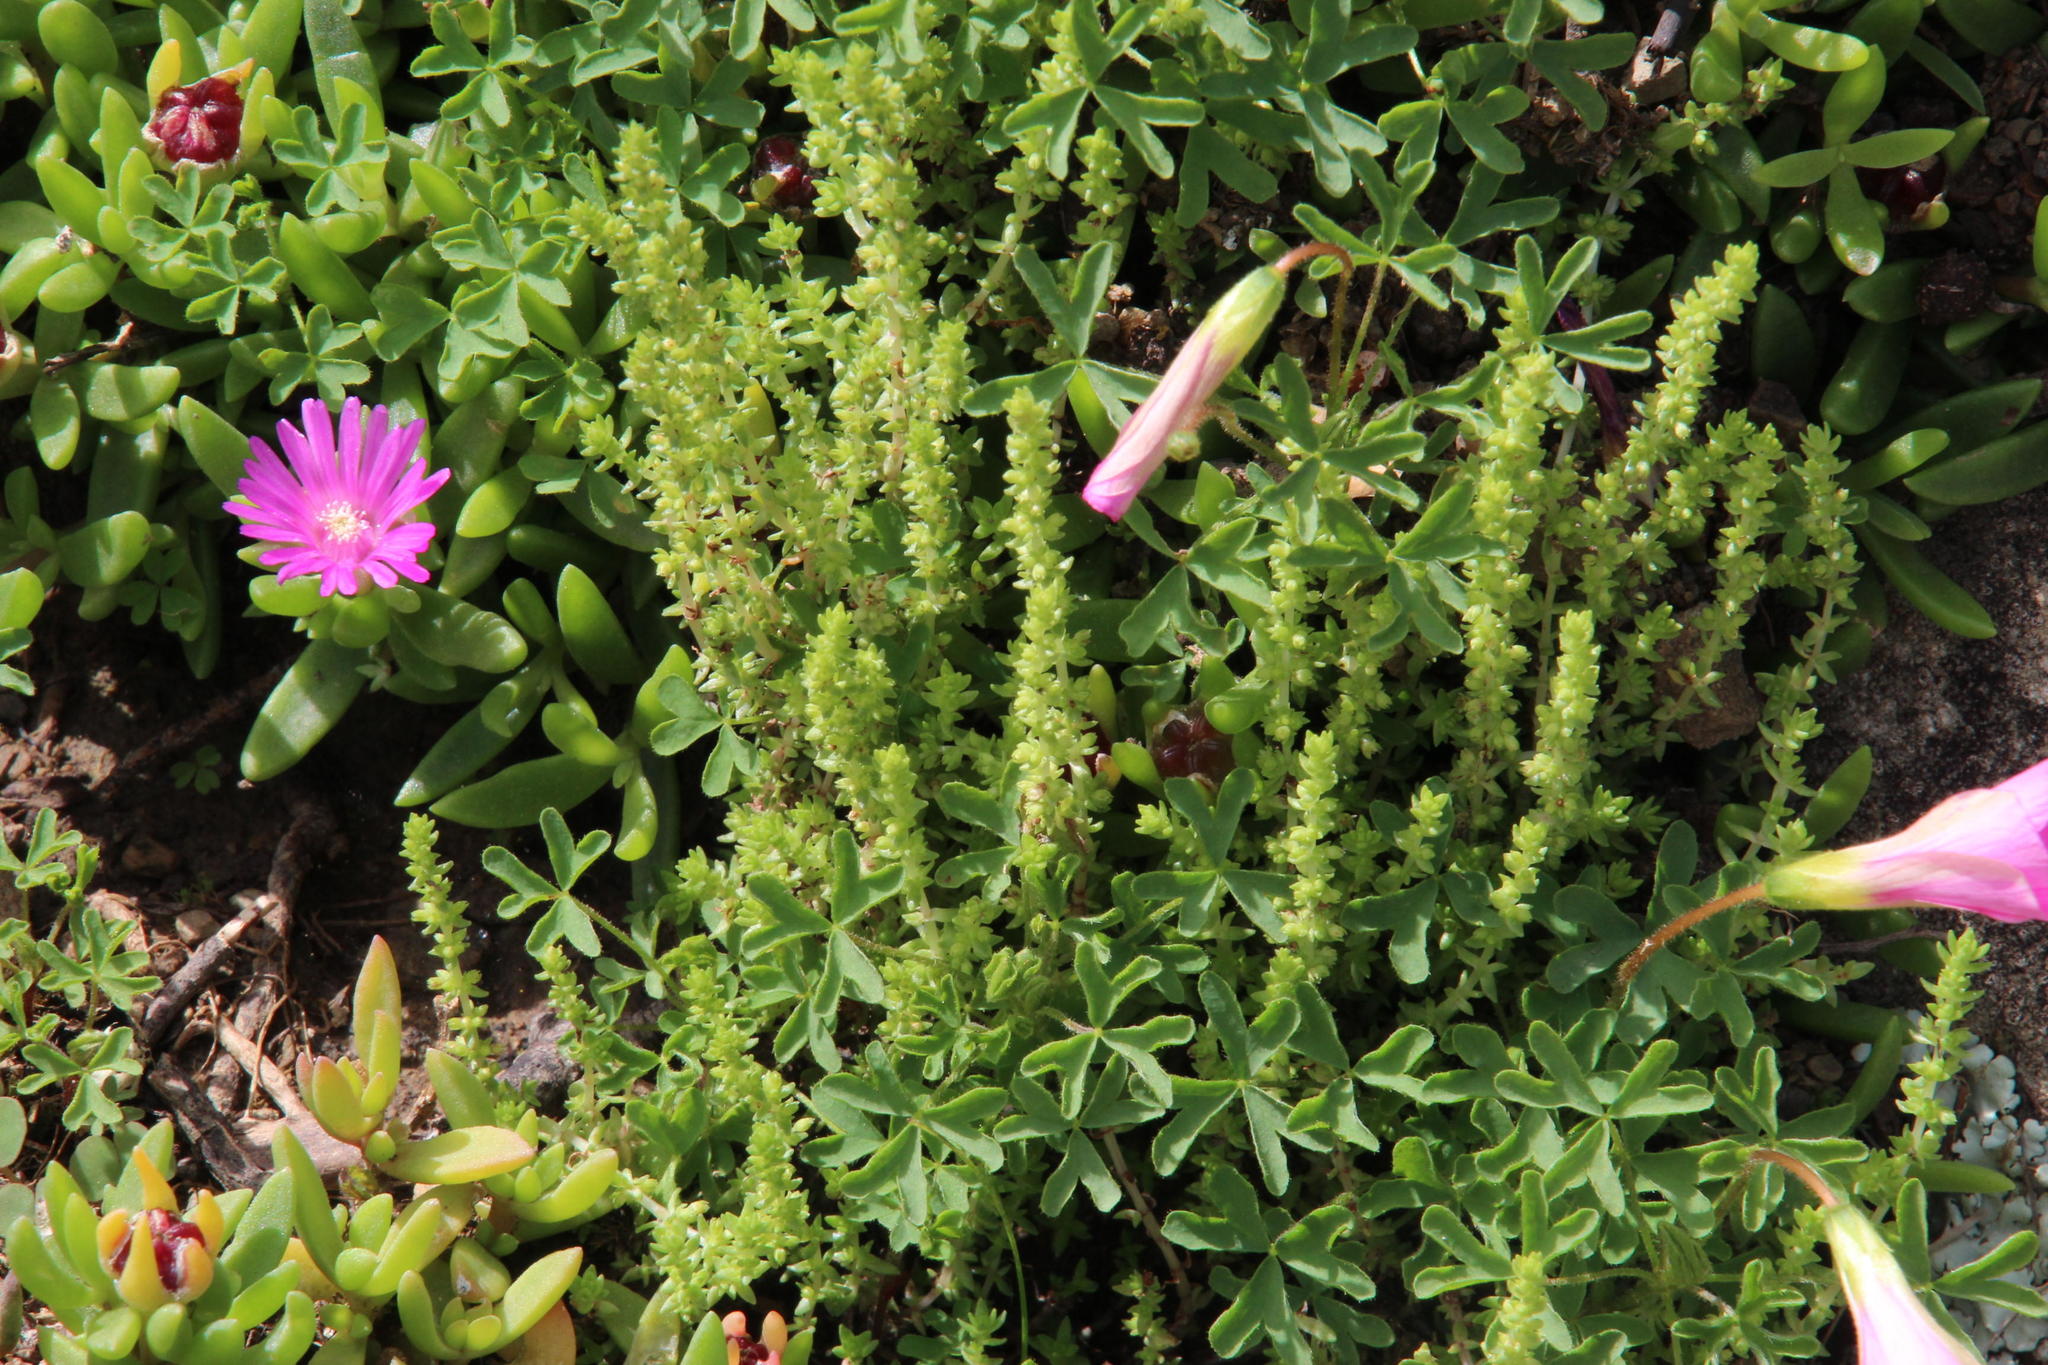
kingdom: Plantae
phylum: Tracheophyta
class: Magnoliopsida
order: Saxifragales
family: Crassulaceae
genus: Crassula
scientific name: Crassula lanceolata
